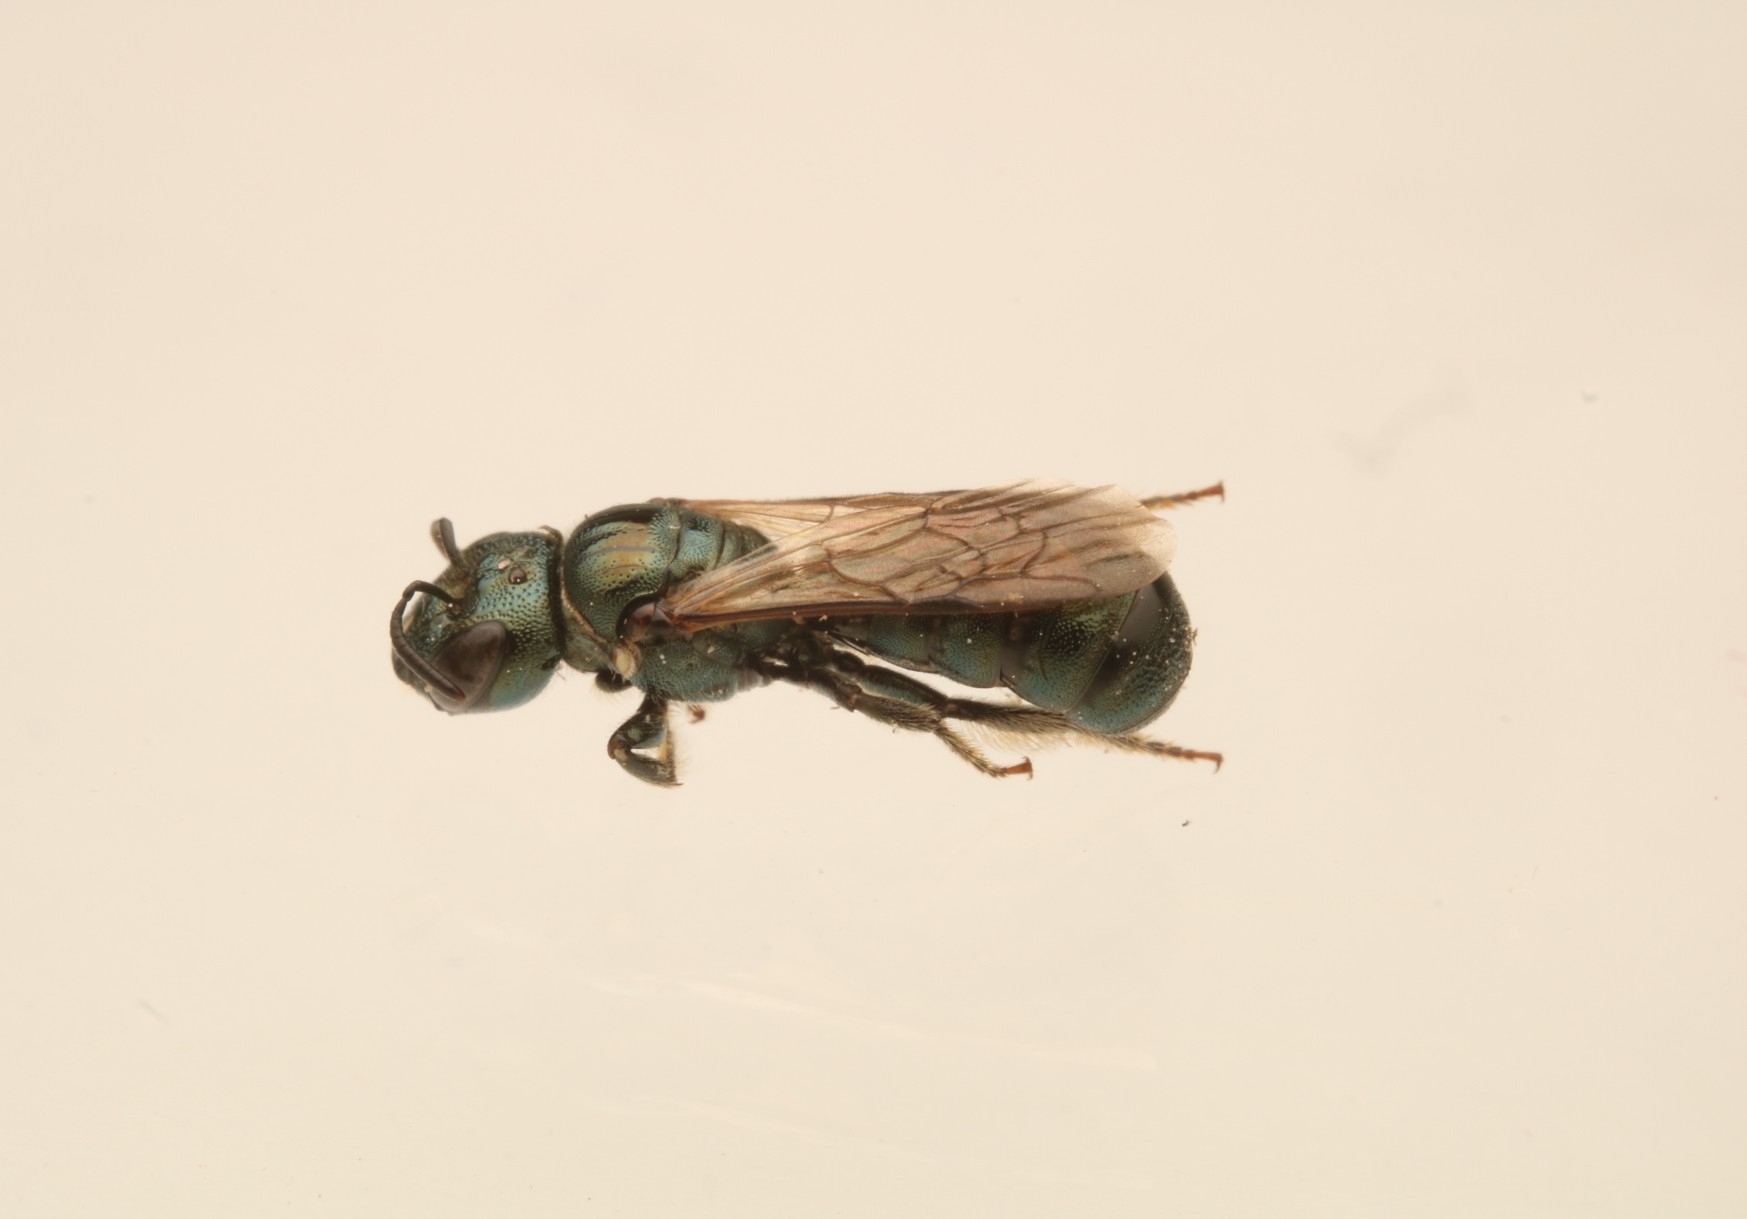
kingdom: Animalia
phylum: Arthropoda
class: Insecta
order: Hymenoptera
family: Apidae
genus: Zadontomerus
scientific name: Zadontomerus
